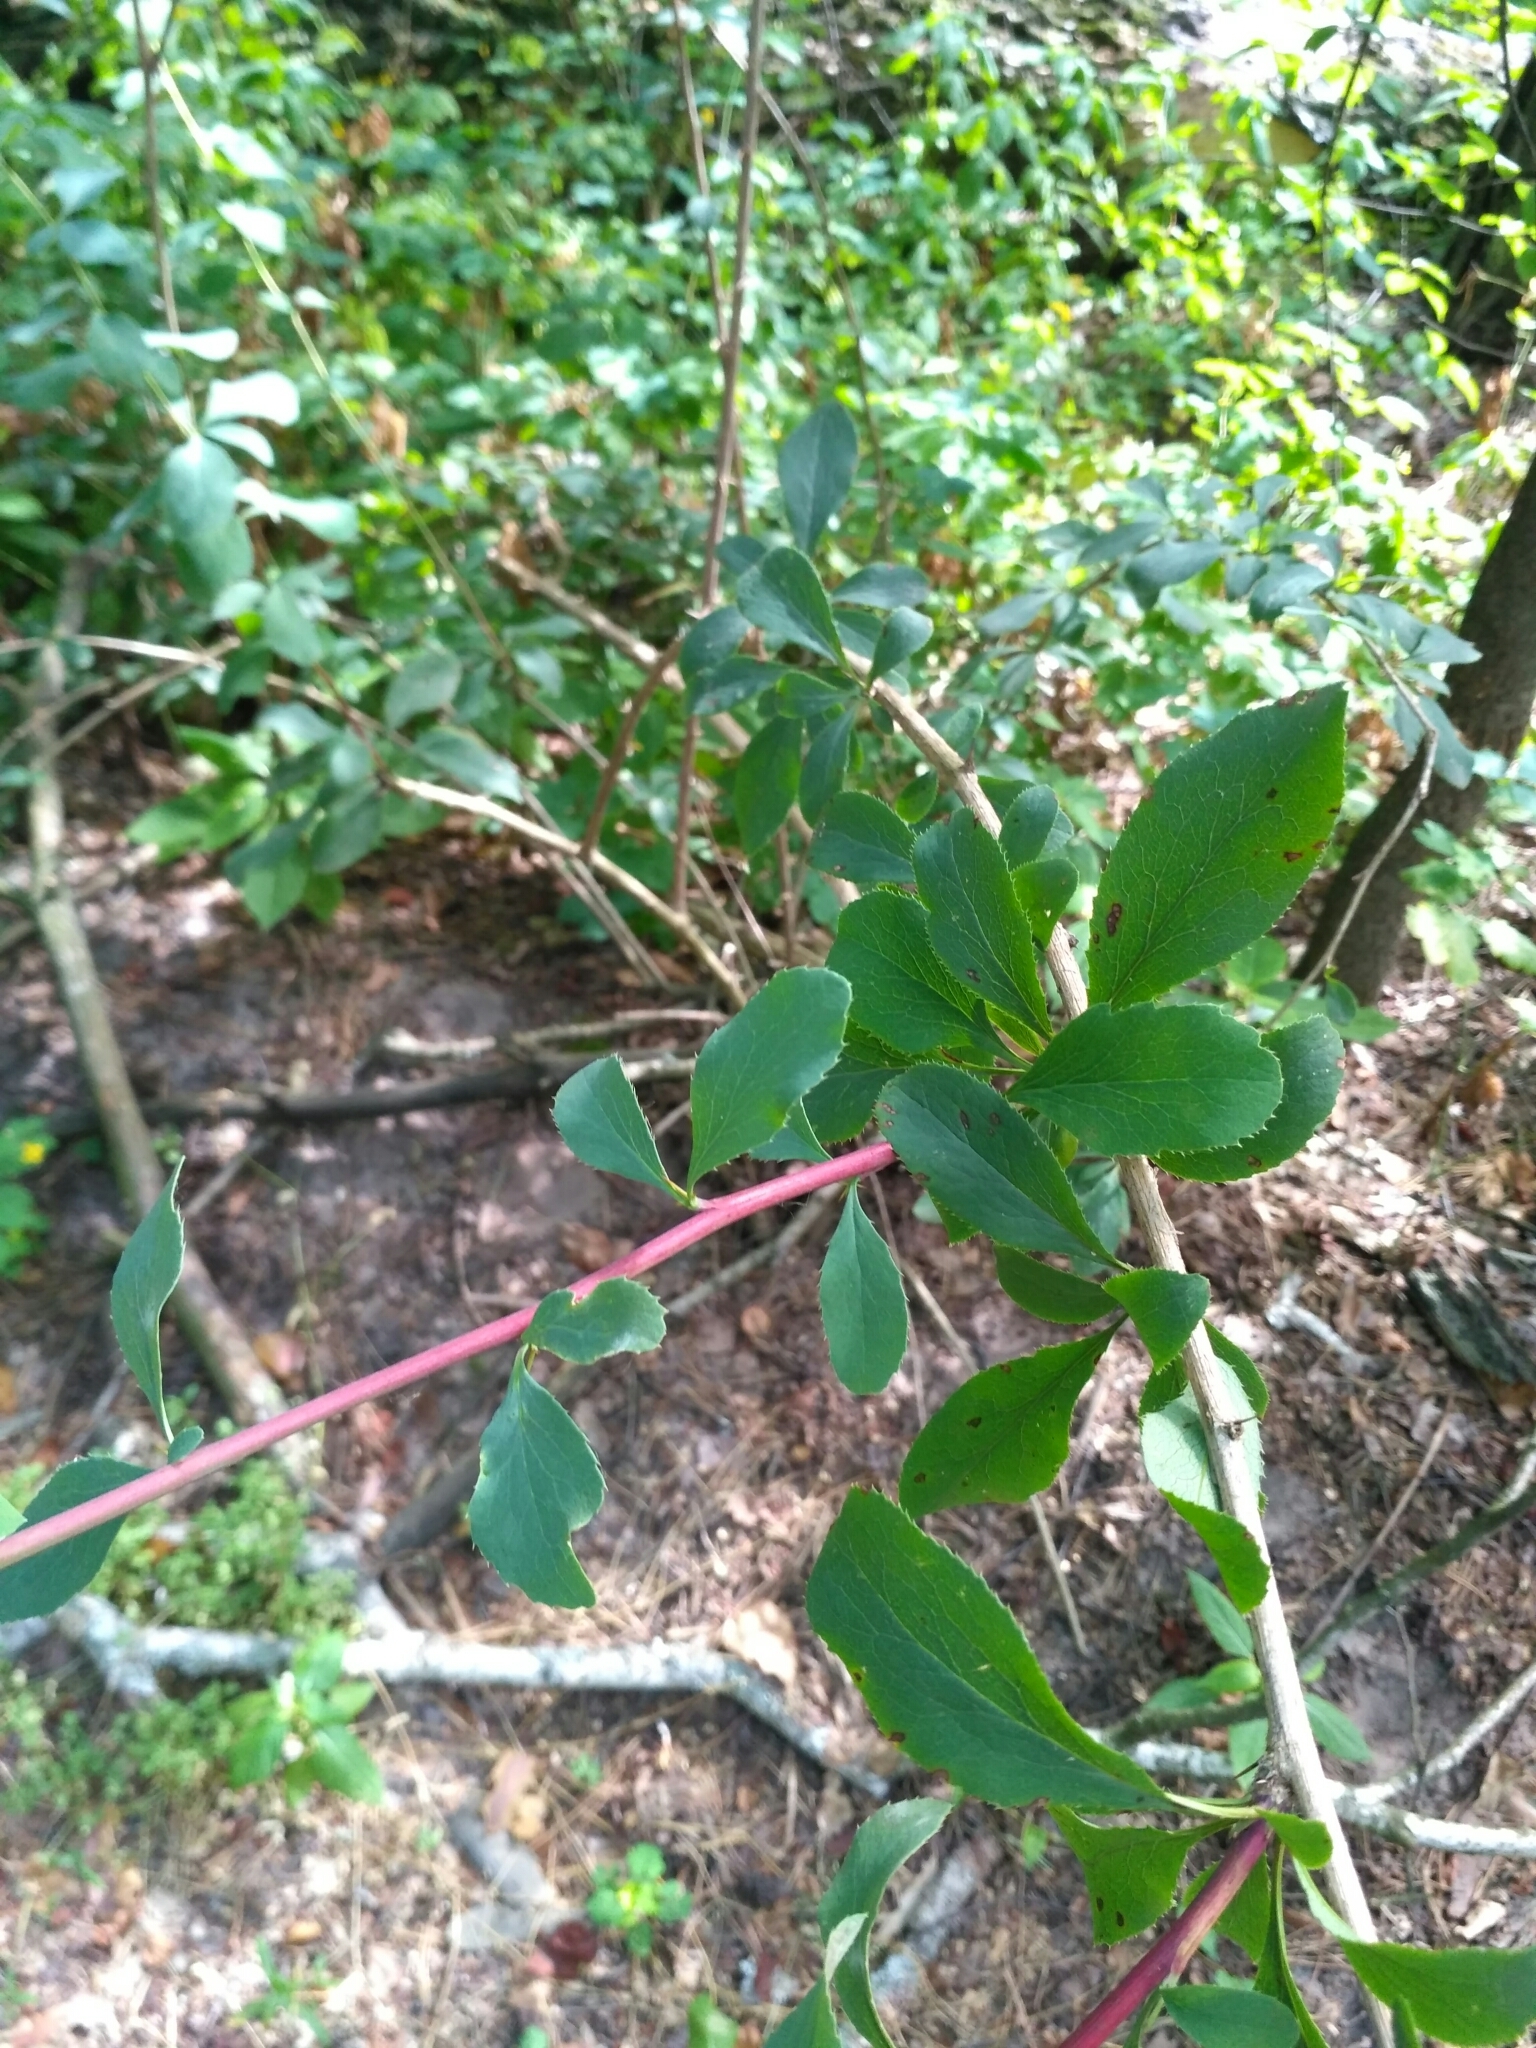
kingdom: Plantae
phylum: Tracheophyta
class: Magnoliopsida
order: Ranunculales
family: Berberidaceae
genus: Berberis
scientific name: Berberis vulgaris
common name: Barberry
